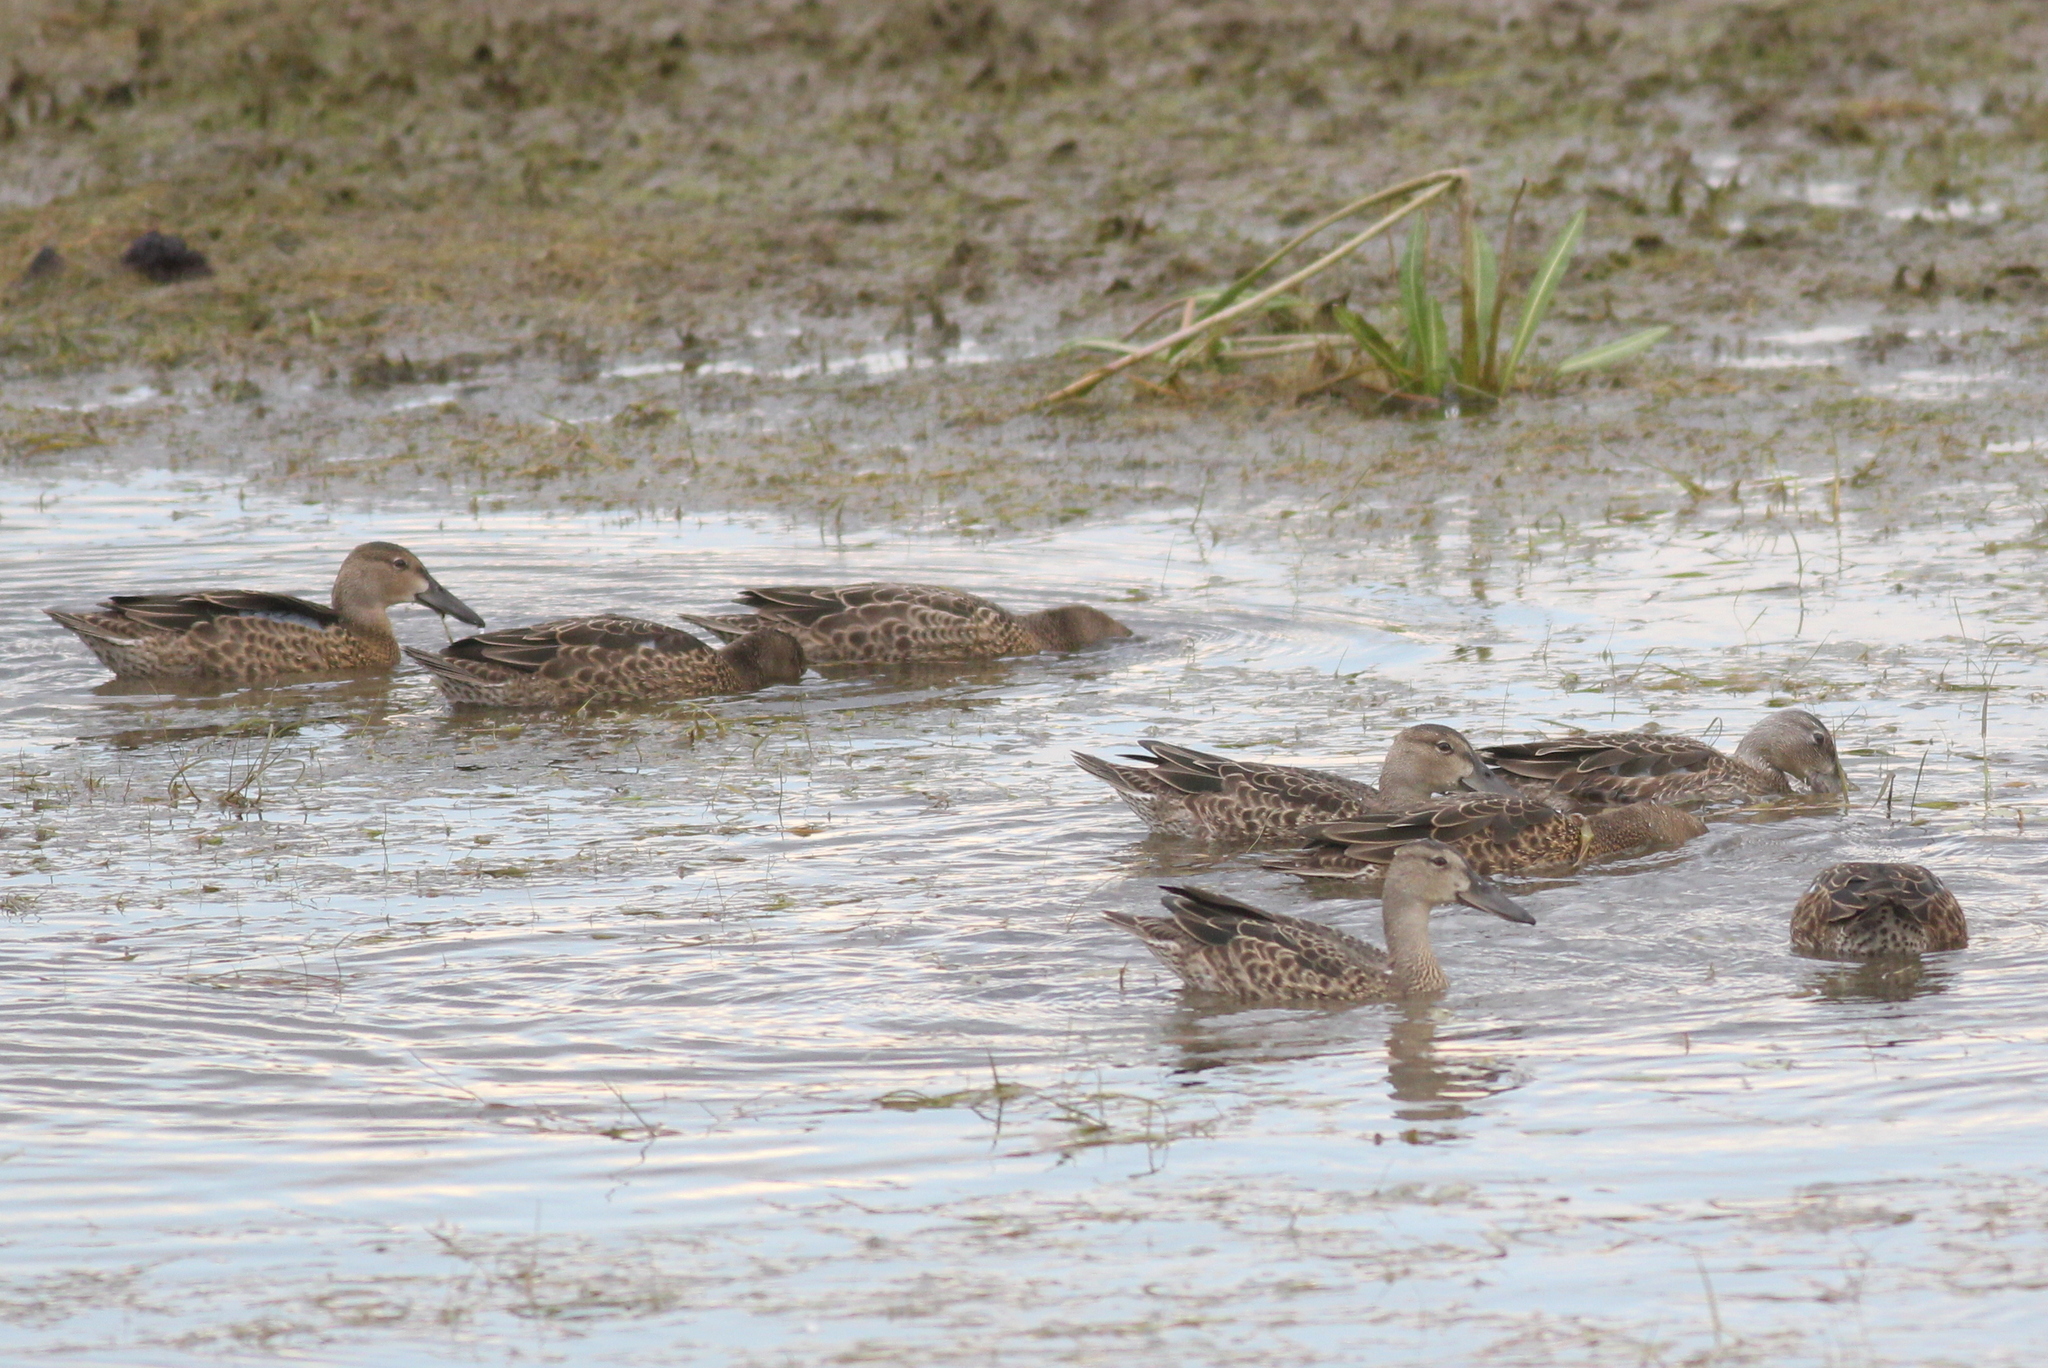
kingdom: Animalia
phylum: Chordata
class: Aves
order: Anseriformes
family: Anatidae
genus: Spatula
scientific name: Spatula cyanoptera
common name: Cinnamon teal
